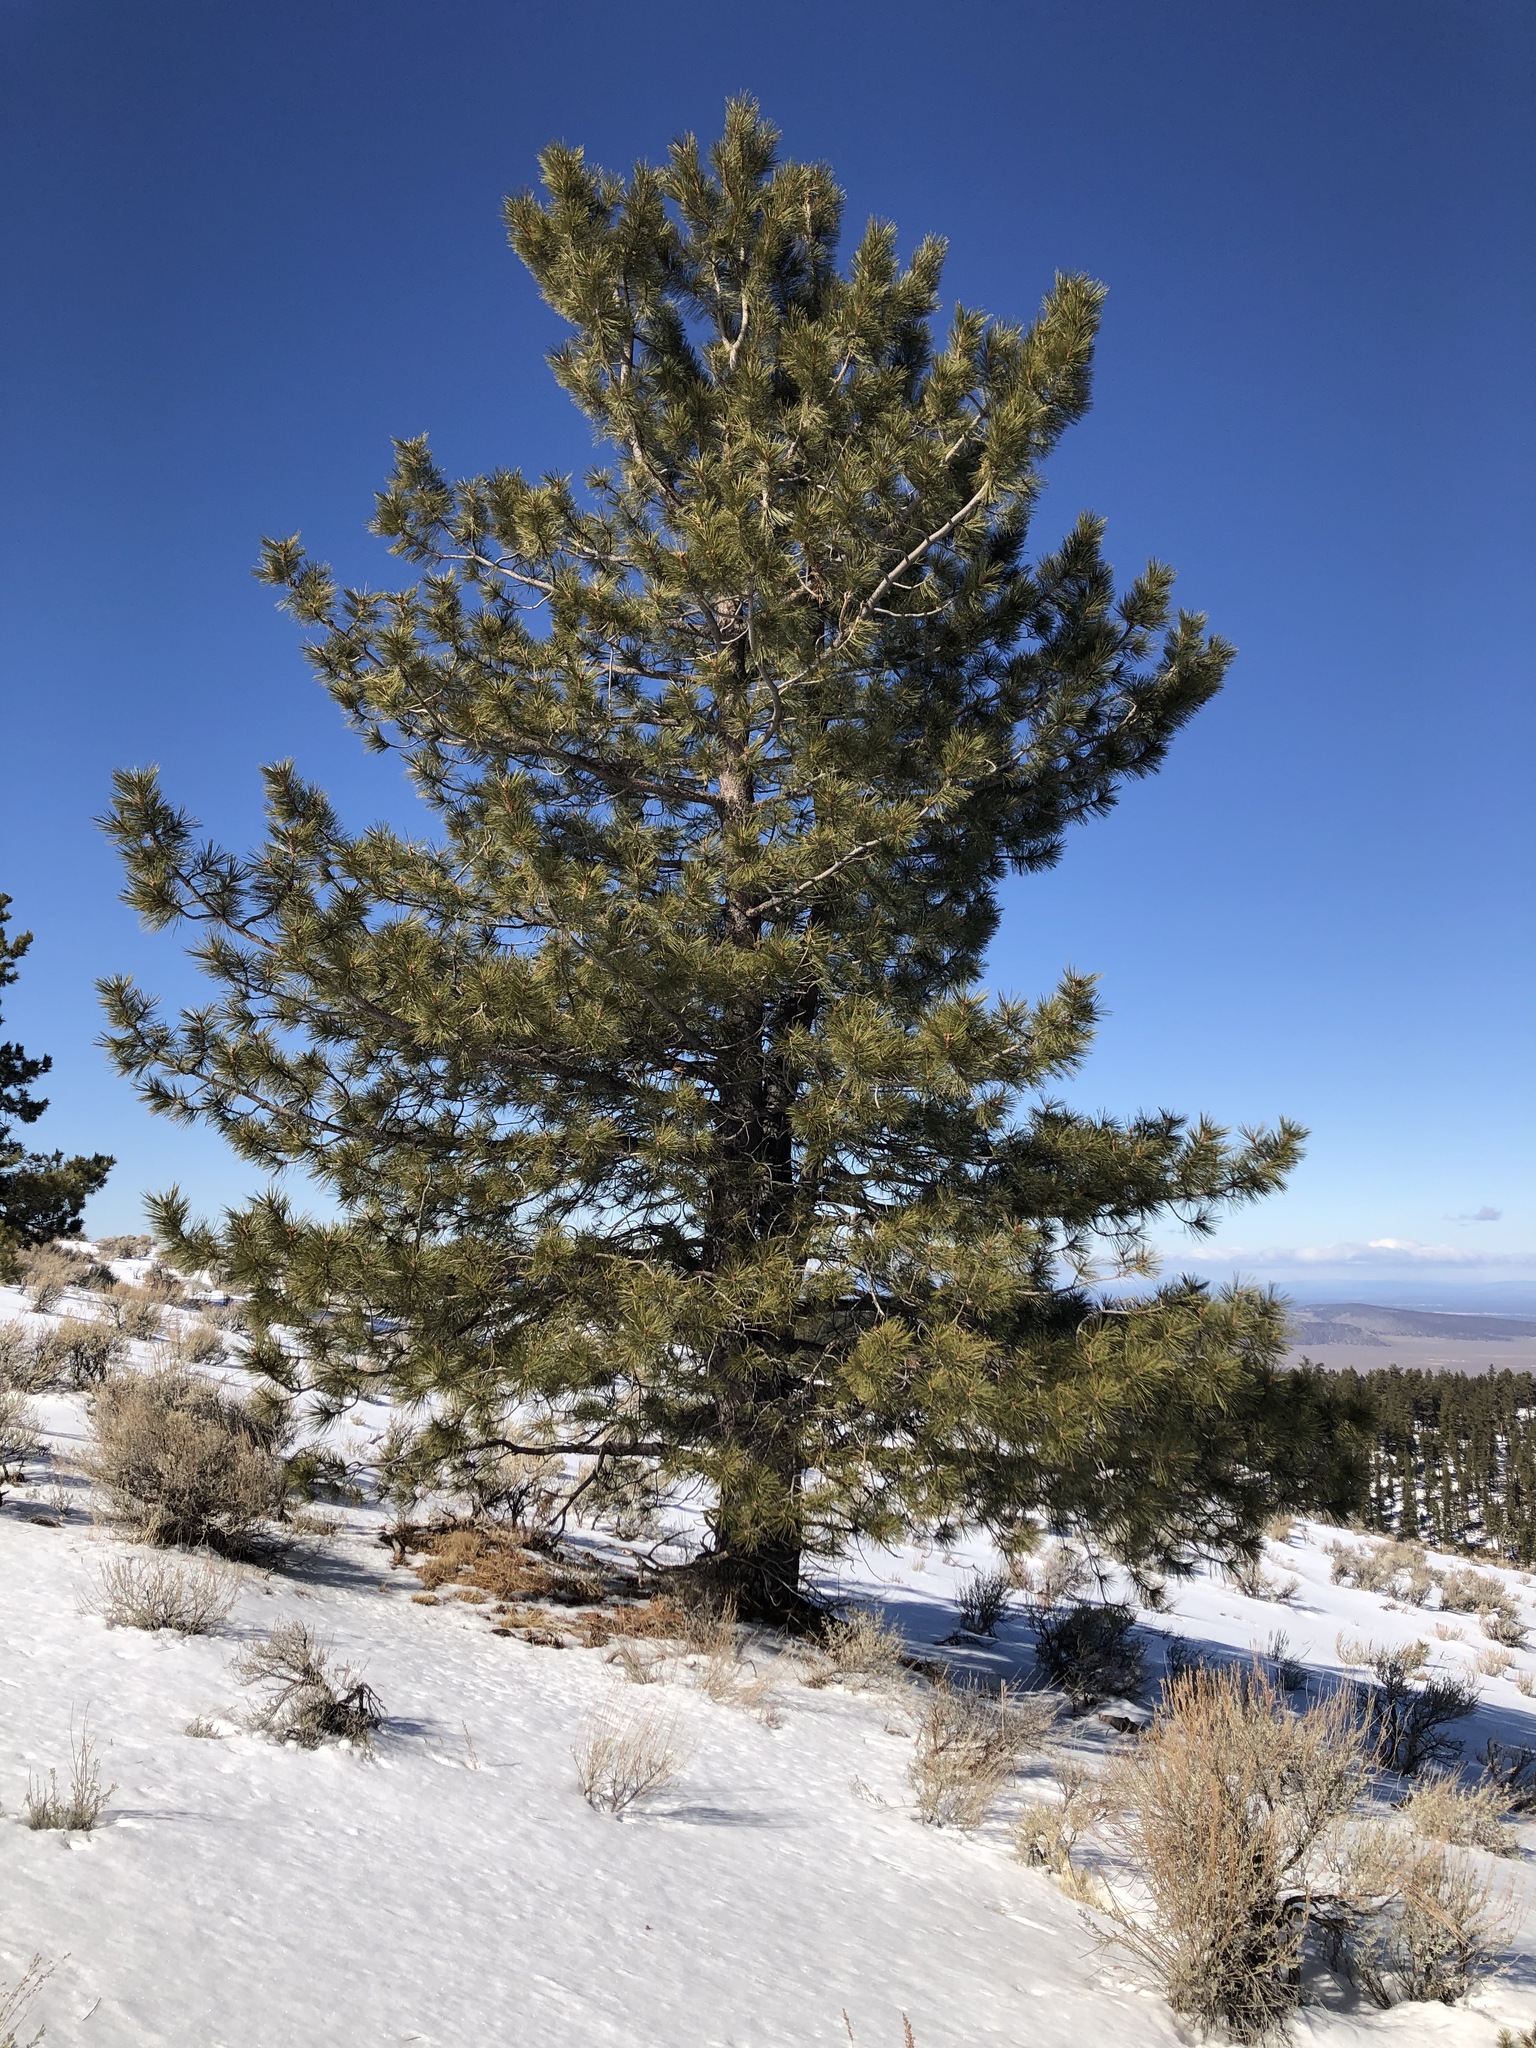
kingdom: Plantae
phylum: Tracheophyta
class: Pinopsida
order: Pinales
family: Pinaceae
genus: Pinus
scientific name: Pinus ponderosa
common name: Western yellow-pine
